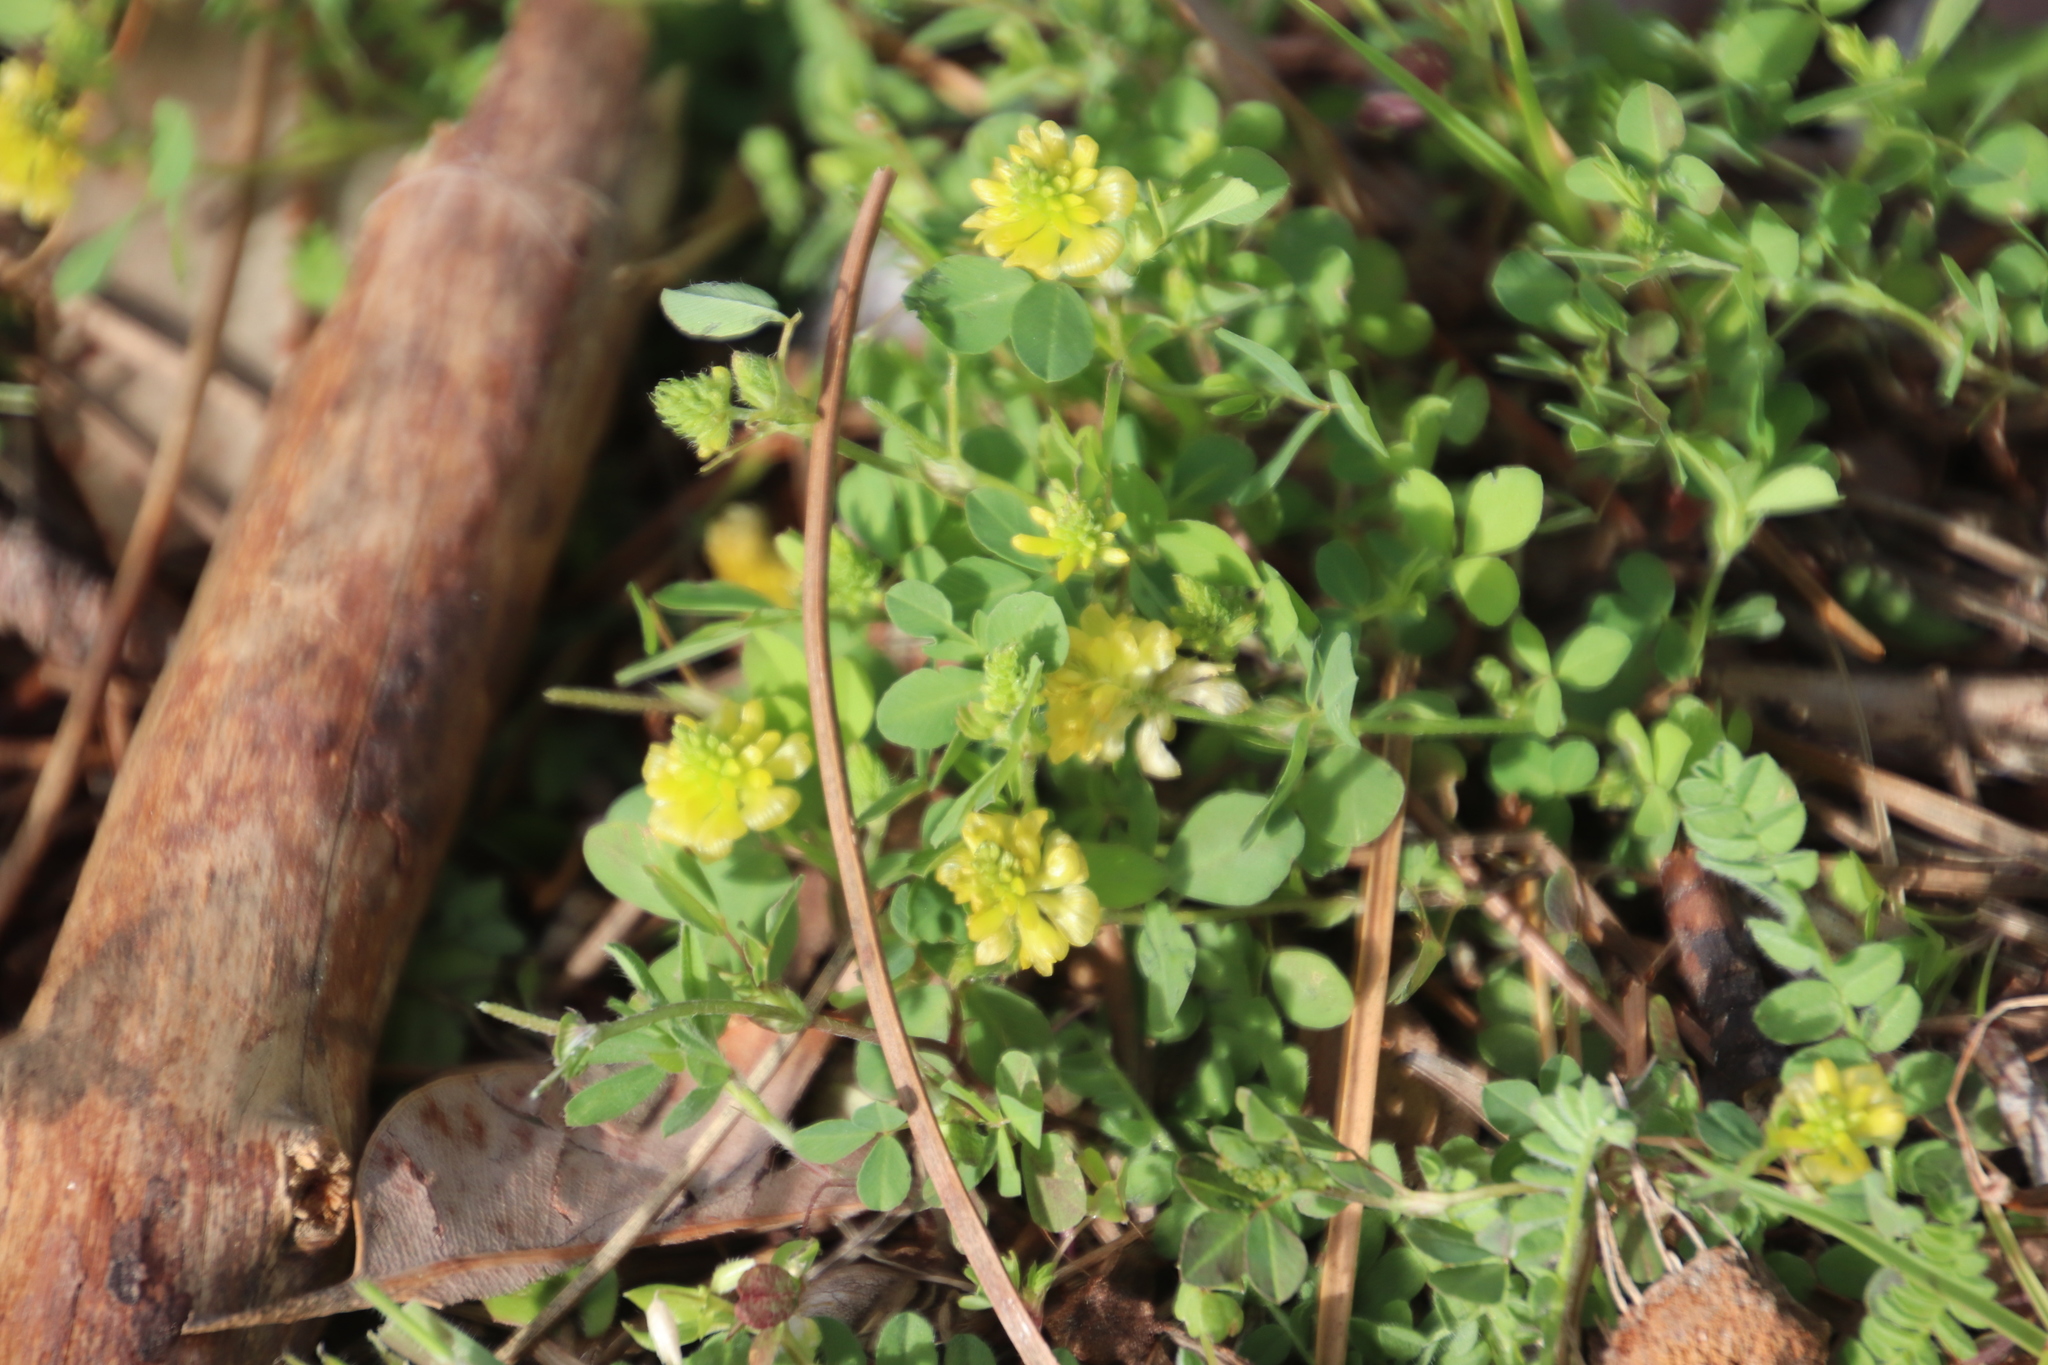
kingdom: Plantae
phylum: Tracheophyta
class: Magnoliopsida
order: Fabales
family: Fabaceae
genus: Trifolium
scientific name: Trifolium campestre
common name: Field clover
